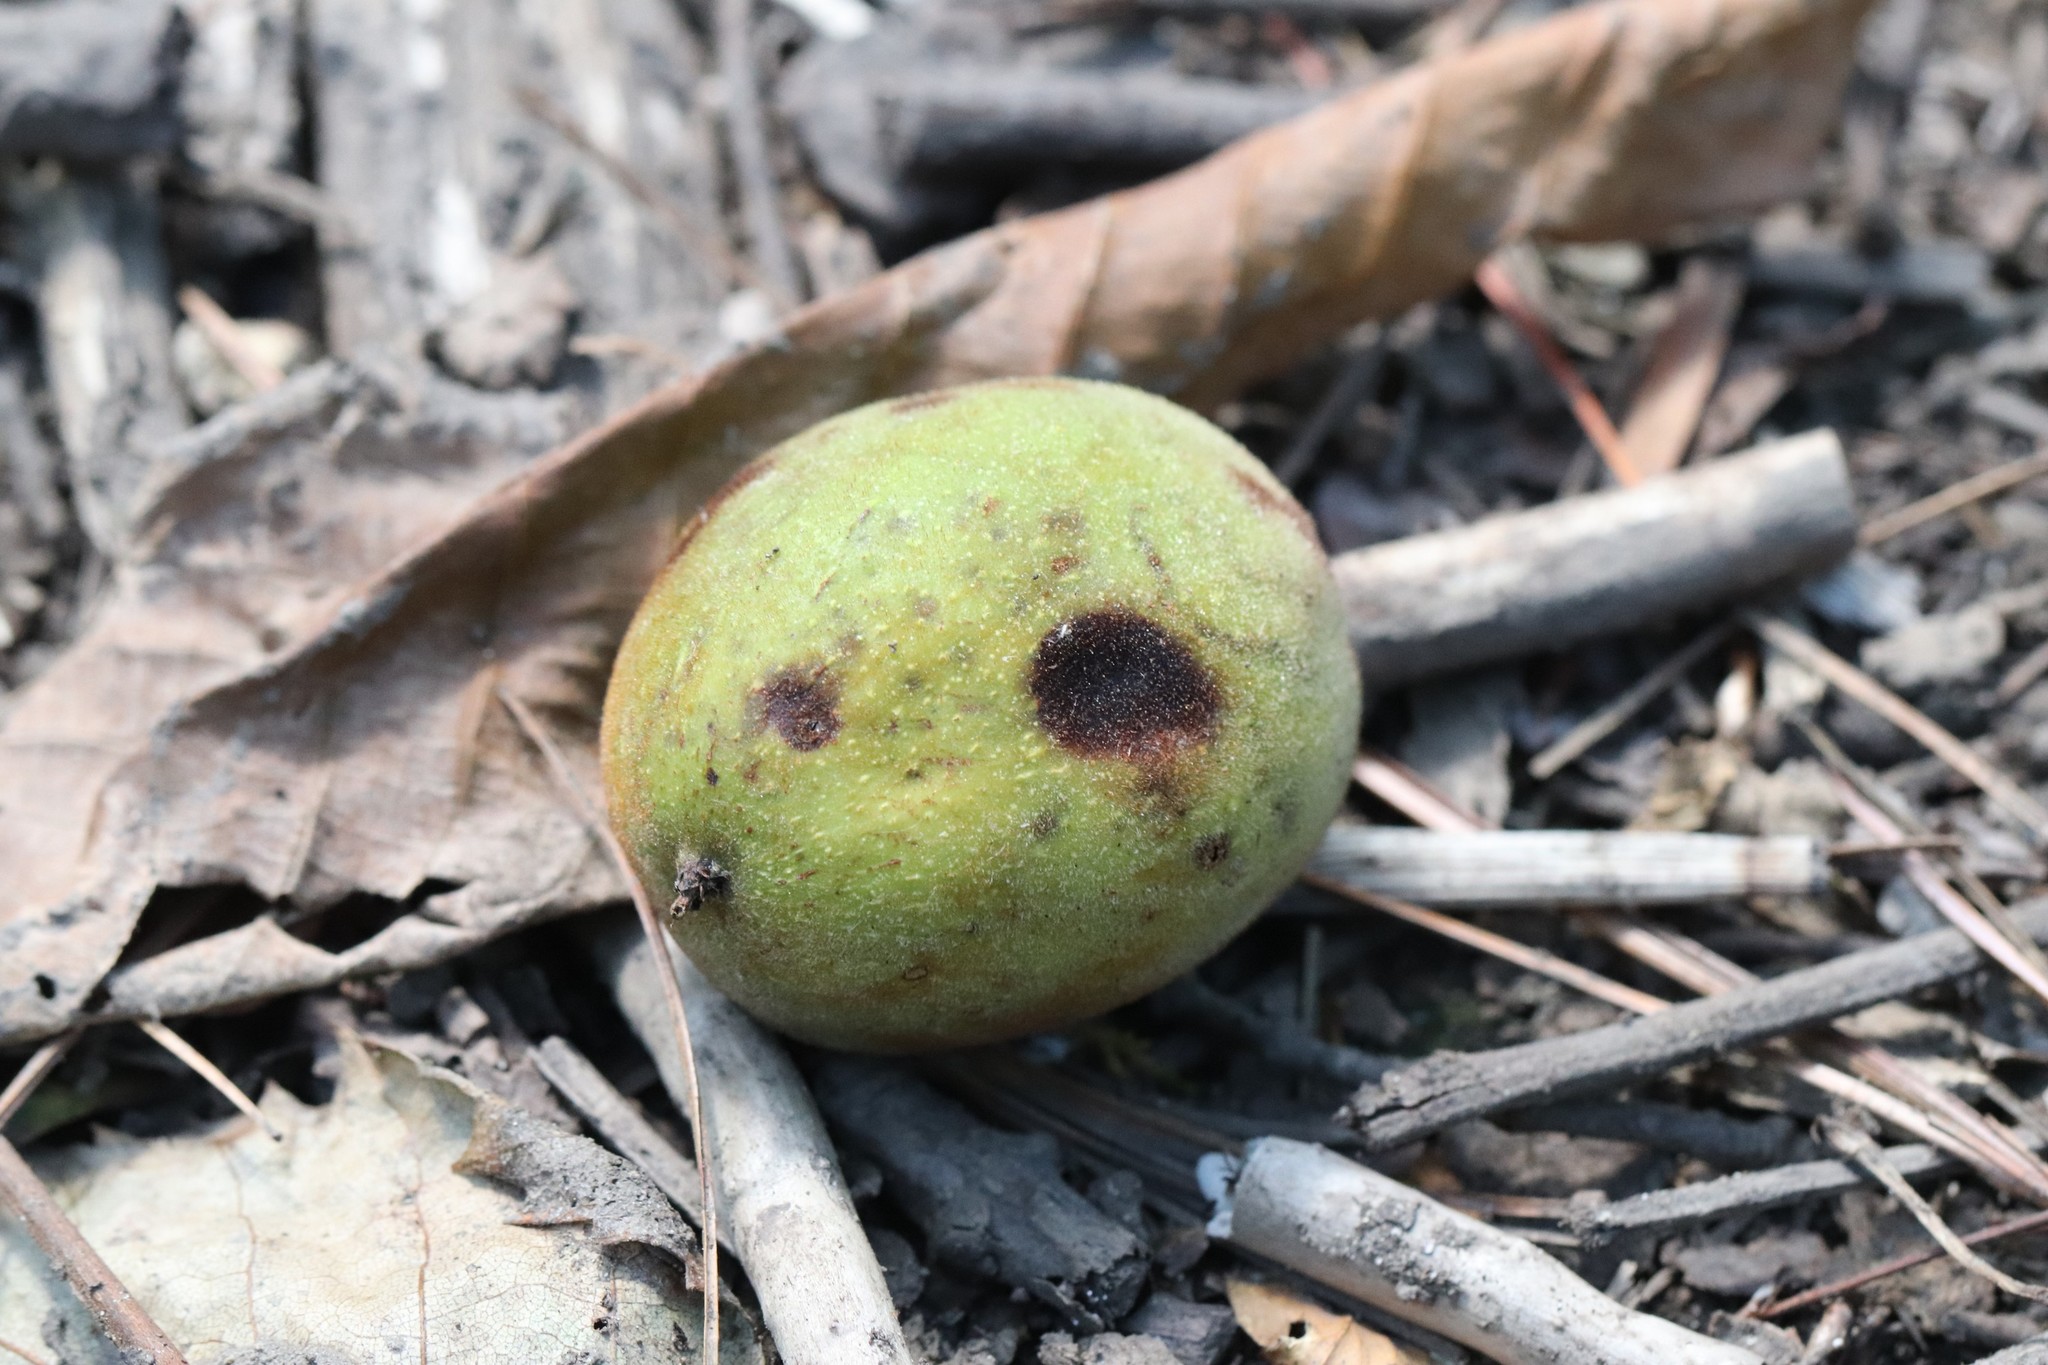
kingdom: Plantae
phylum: Tracheophyta
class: Magnoliopsida
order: Fagales
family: Juglandaceae
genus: Juglans
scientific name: Juglans mandshurica
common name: Manchurian walnut
